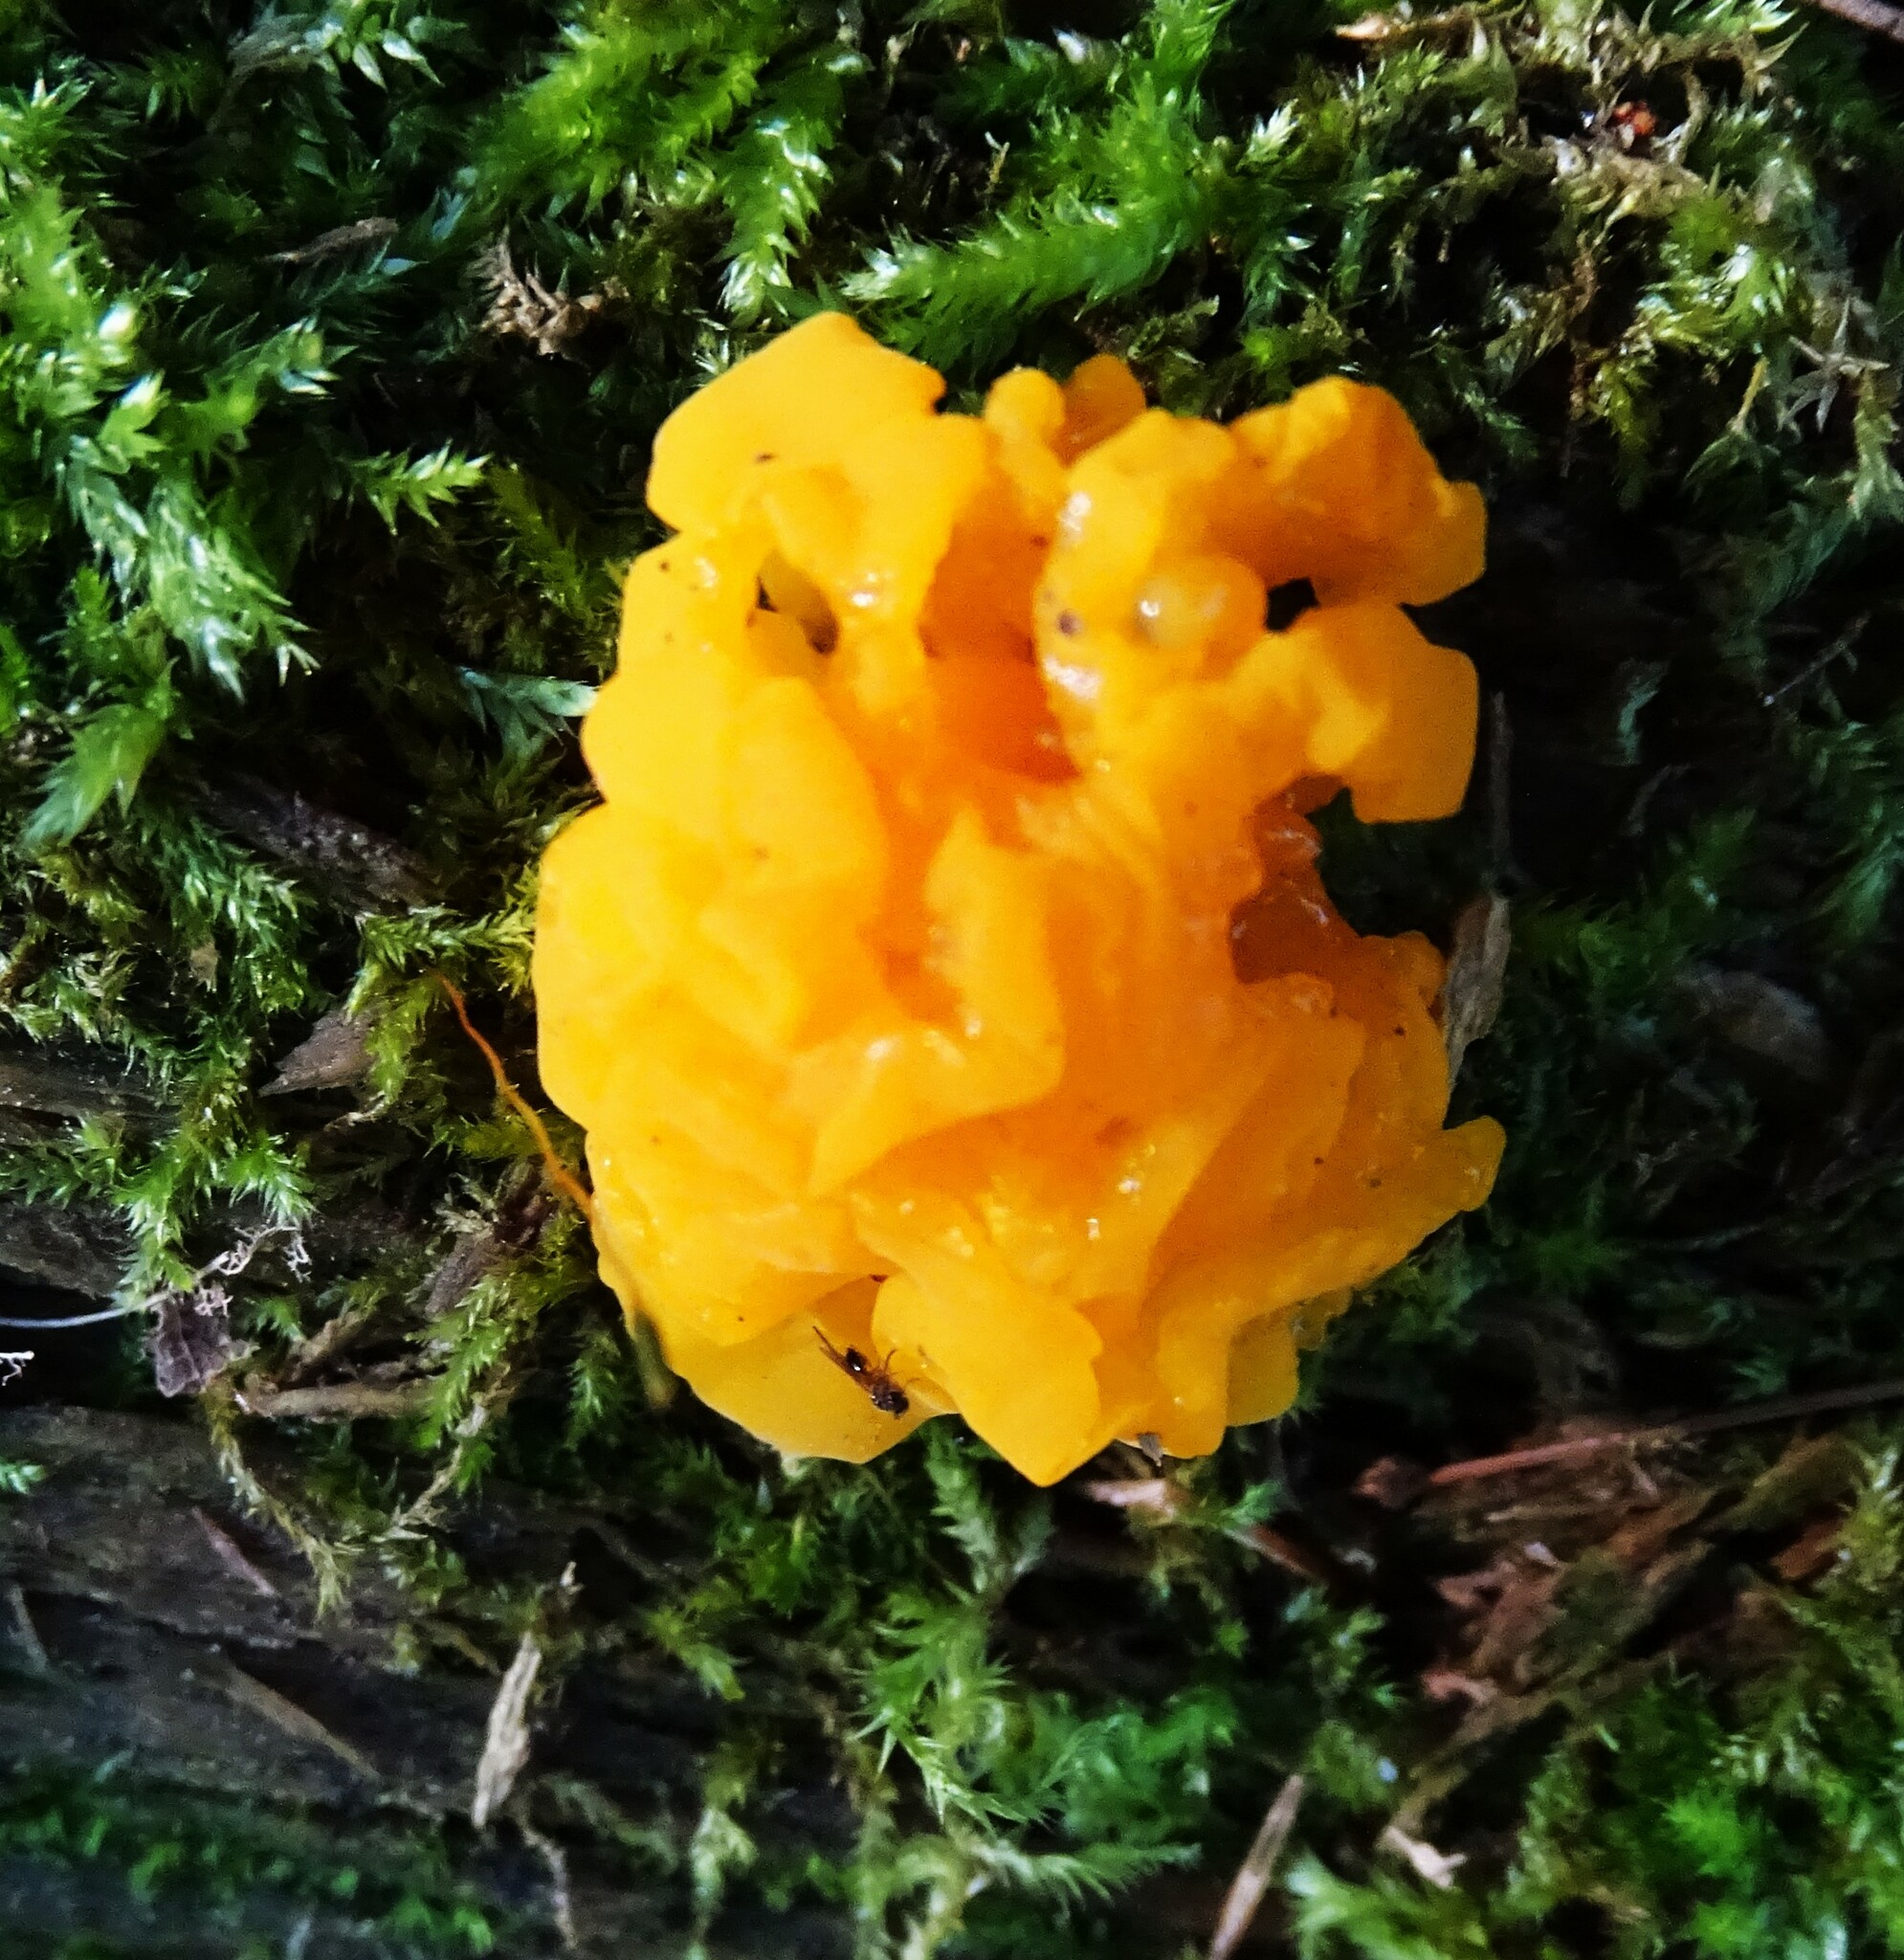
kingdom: Fungi
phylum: Basidiomycota
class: Dacrymycetes
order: Dacrymycetales
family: Dacrymycetaceae
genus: Dacrymyces
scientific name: Dacrymyces chrysospermus
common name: Orange jelly spot
